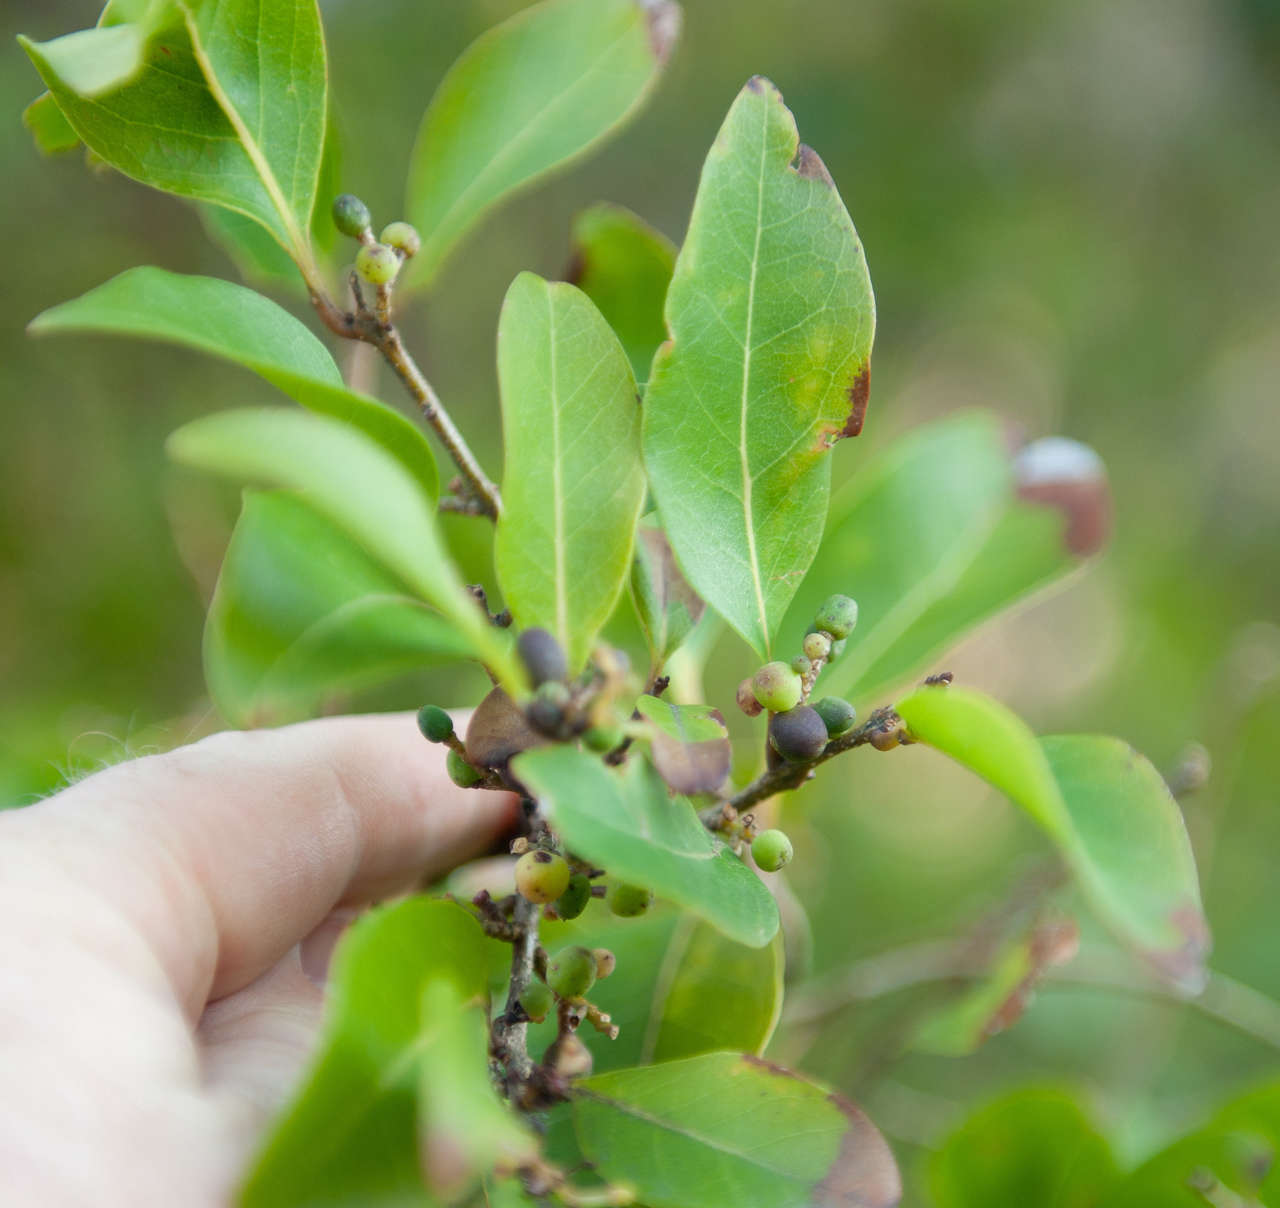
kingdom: Plantae
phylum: Tracheophyta
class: Magnoliopsida
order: Lamiales
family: Oleaceae
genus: Notelaea
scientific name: Notelaea venosa
